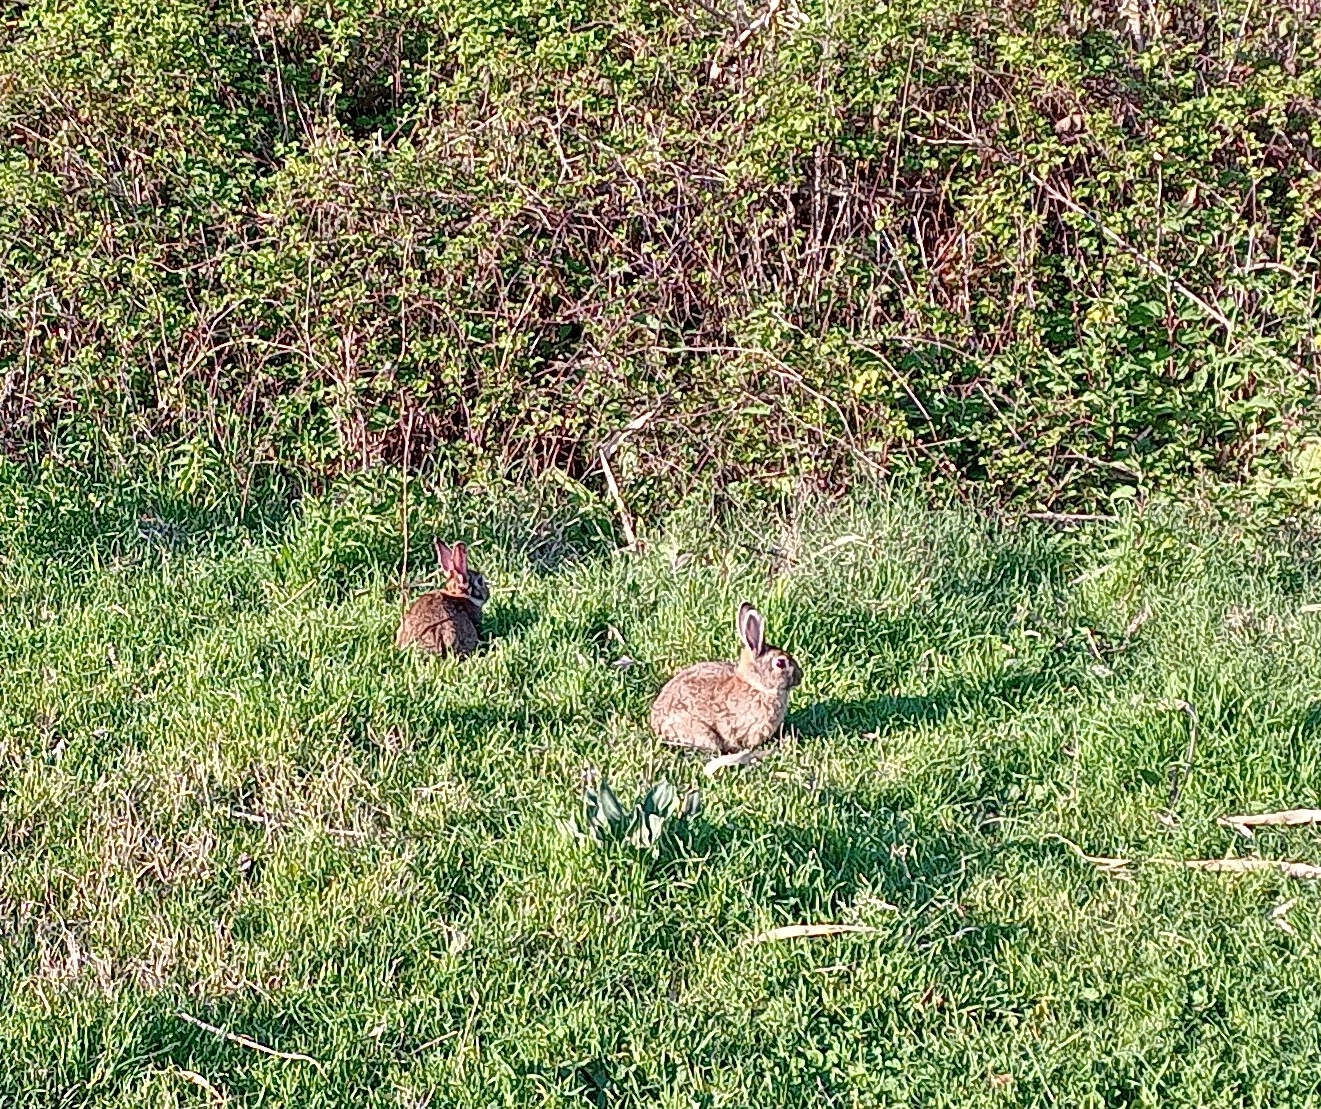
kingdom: Animalia
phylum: Chordata
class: Mammalia
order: Lagomorpha
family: Leporidae
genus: Oryctolagus
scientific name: Oryctolagus cuniculus
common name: European rabbit
